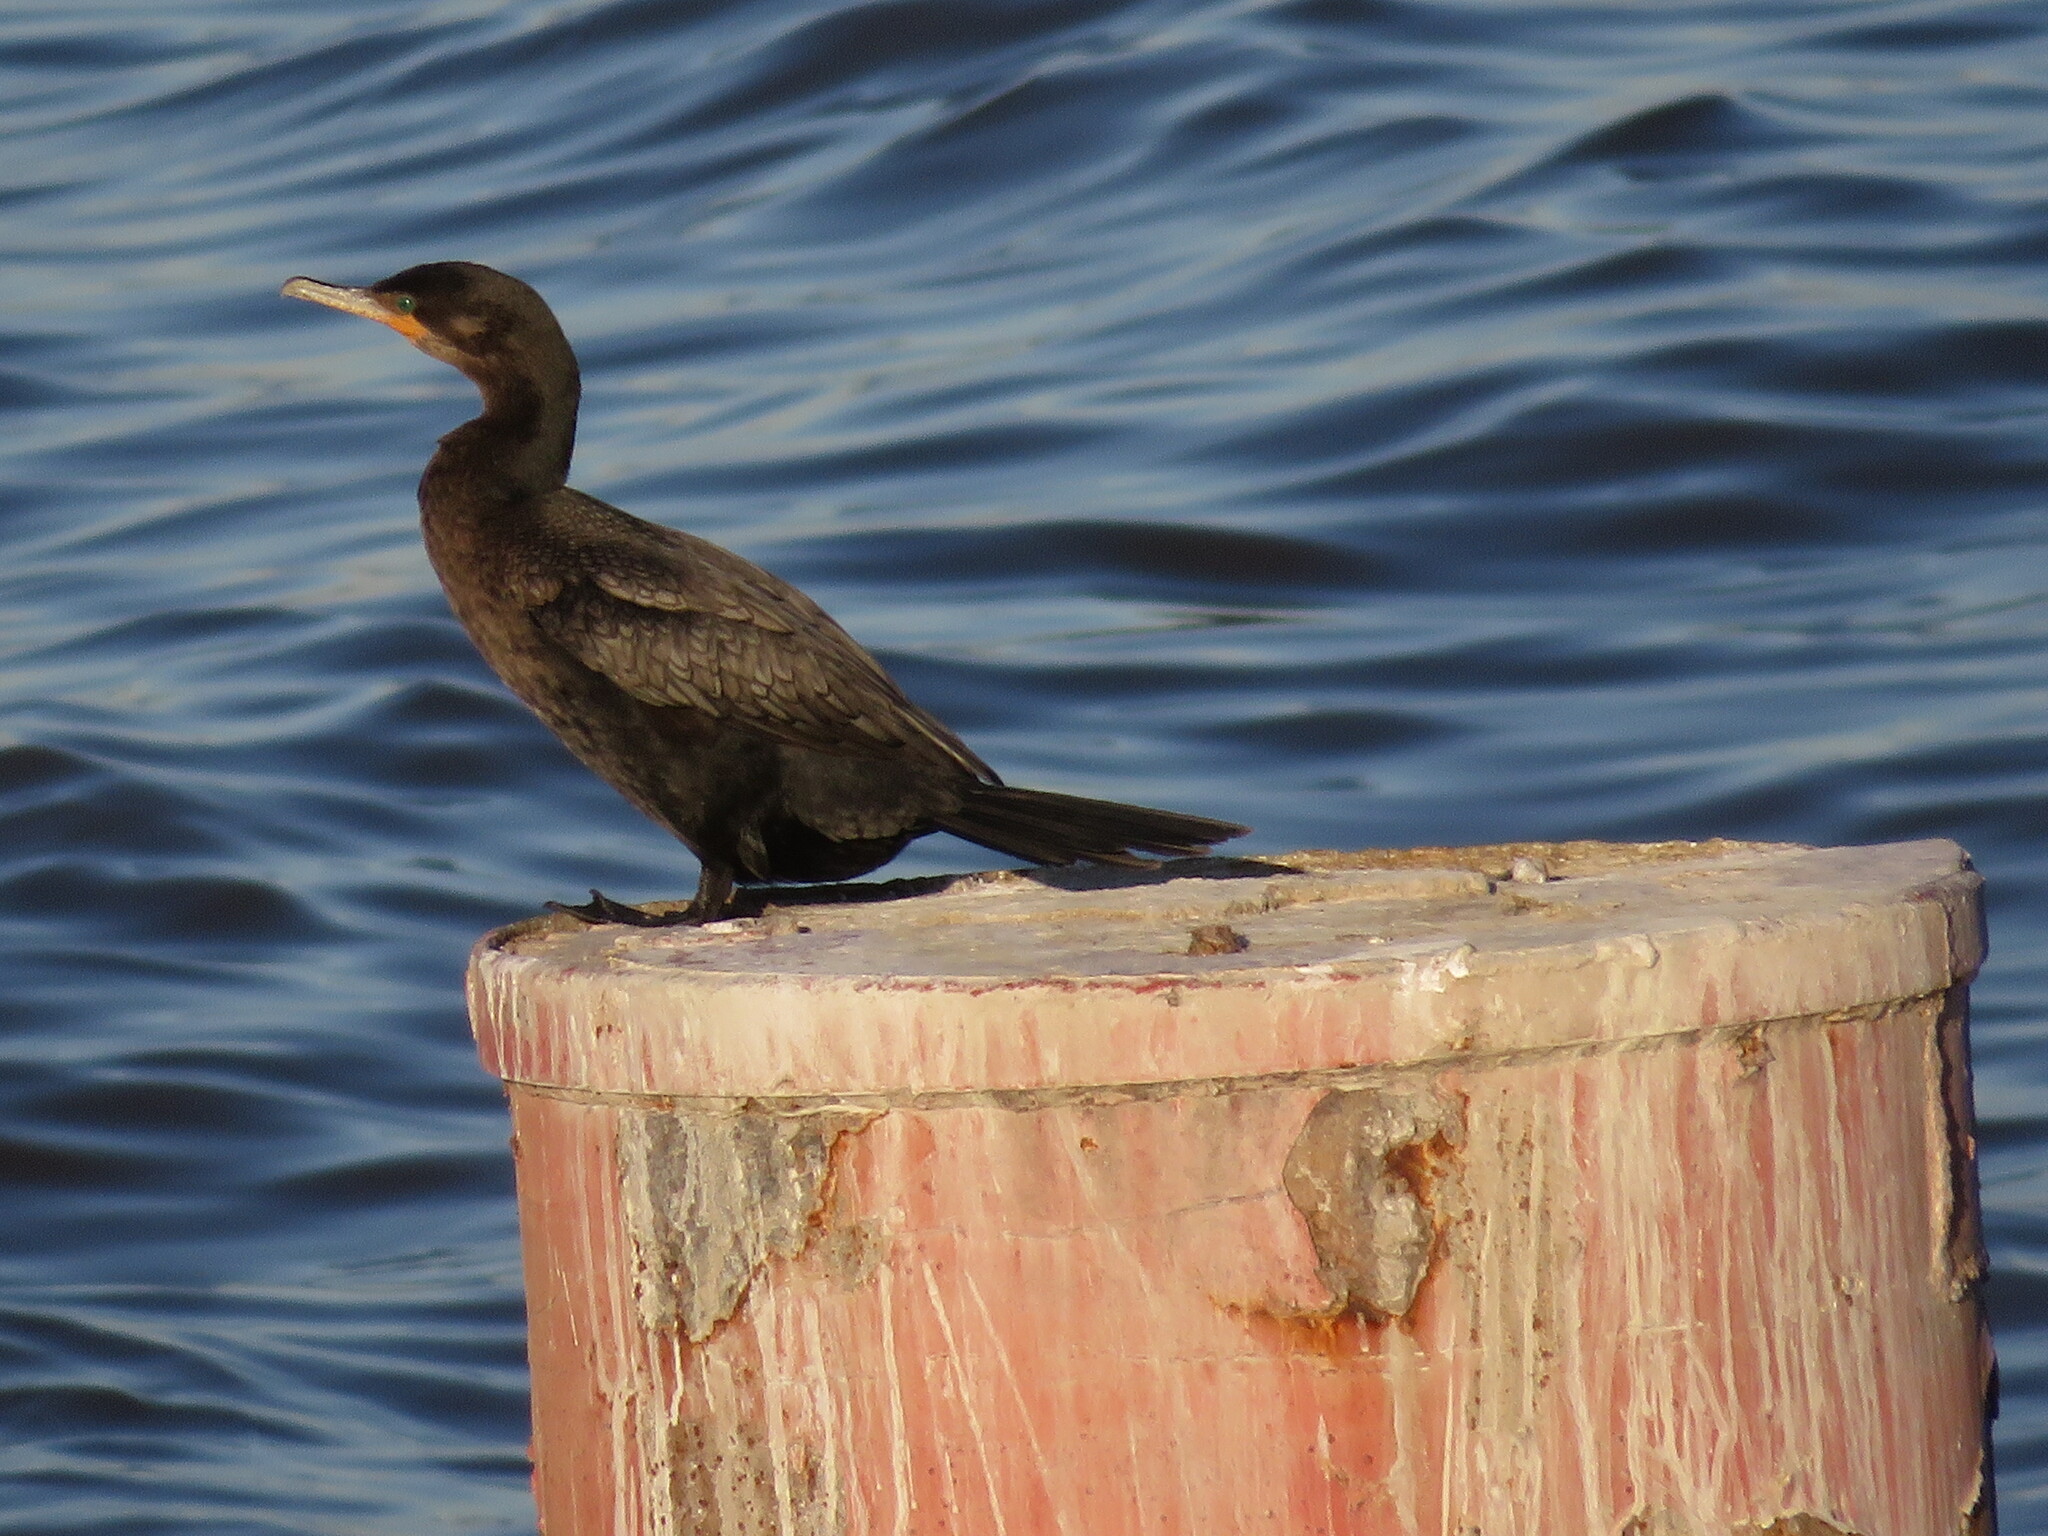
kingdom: Animalia
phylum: Chordata
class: Aves
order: Suliformes
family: Phalacrocoracidae
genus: Phalacrocorax
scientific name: Phalacrocorax brasilianus
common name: Neotropic cormorant
